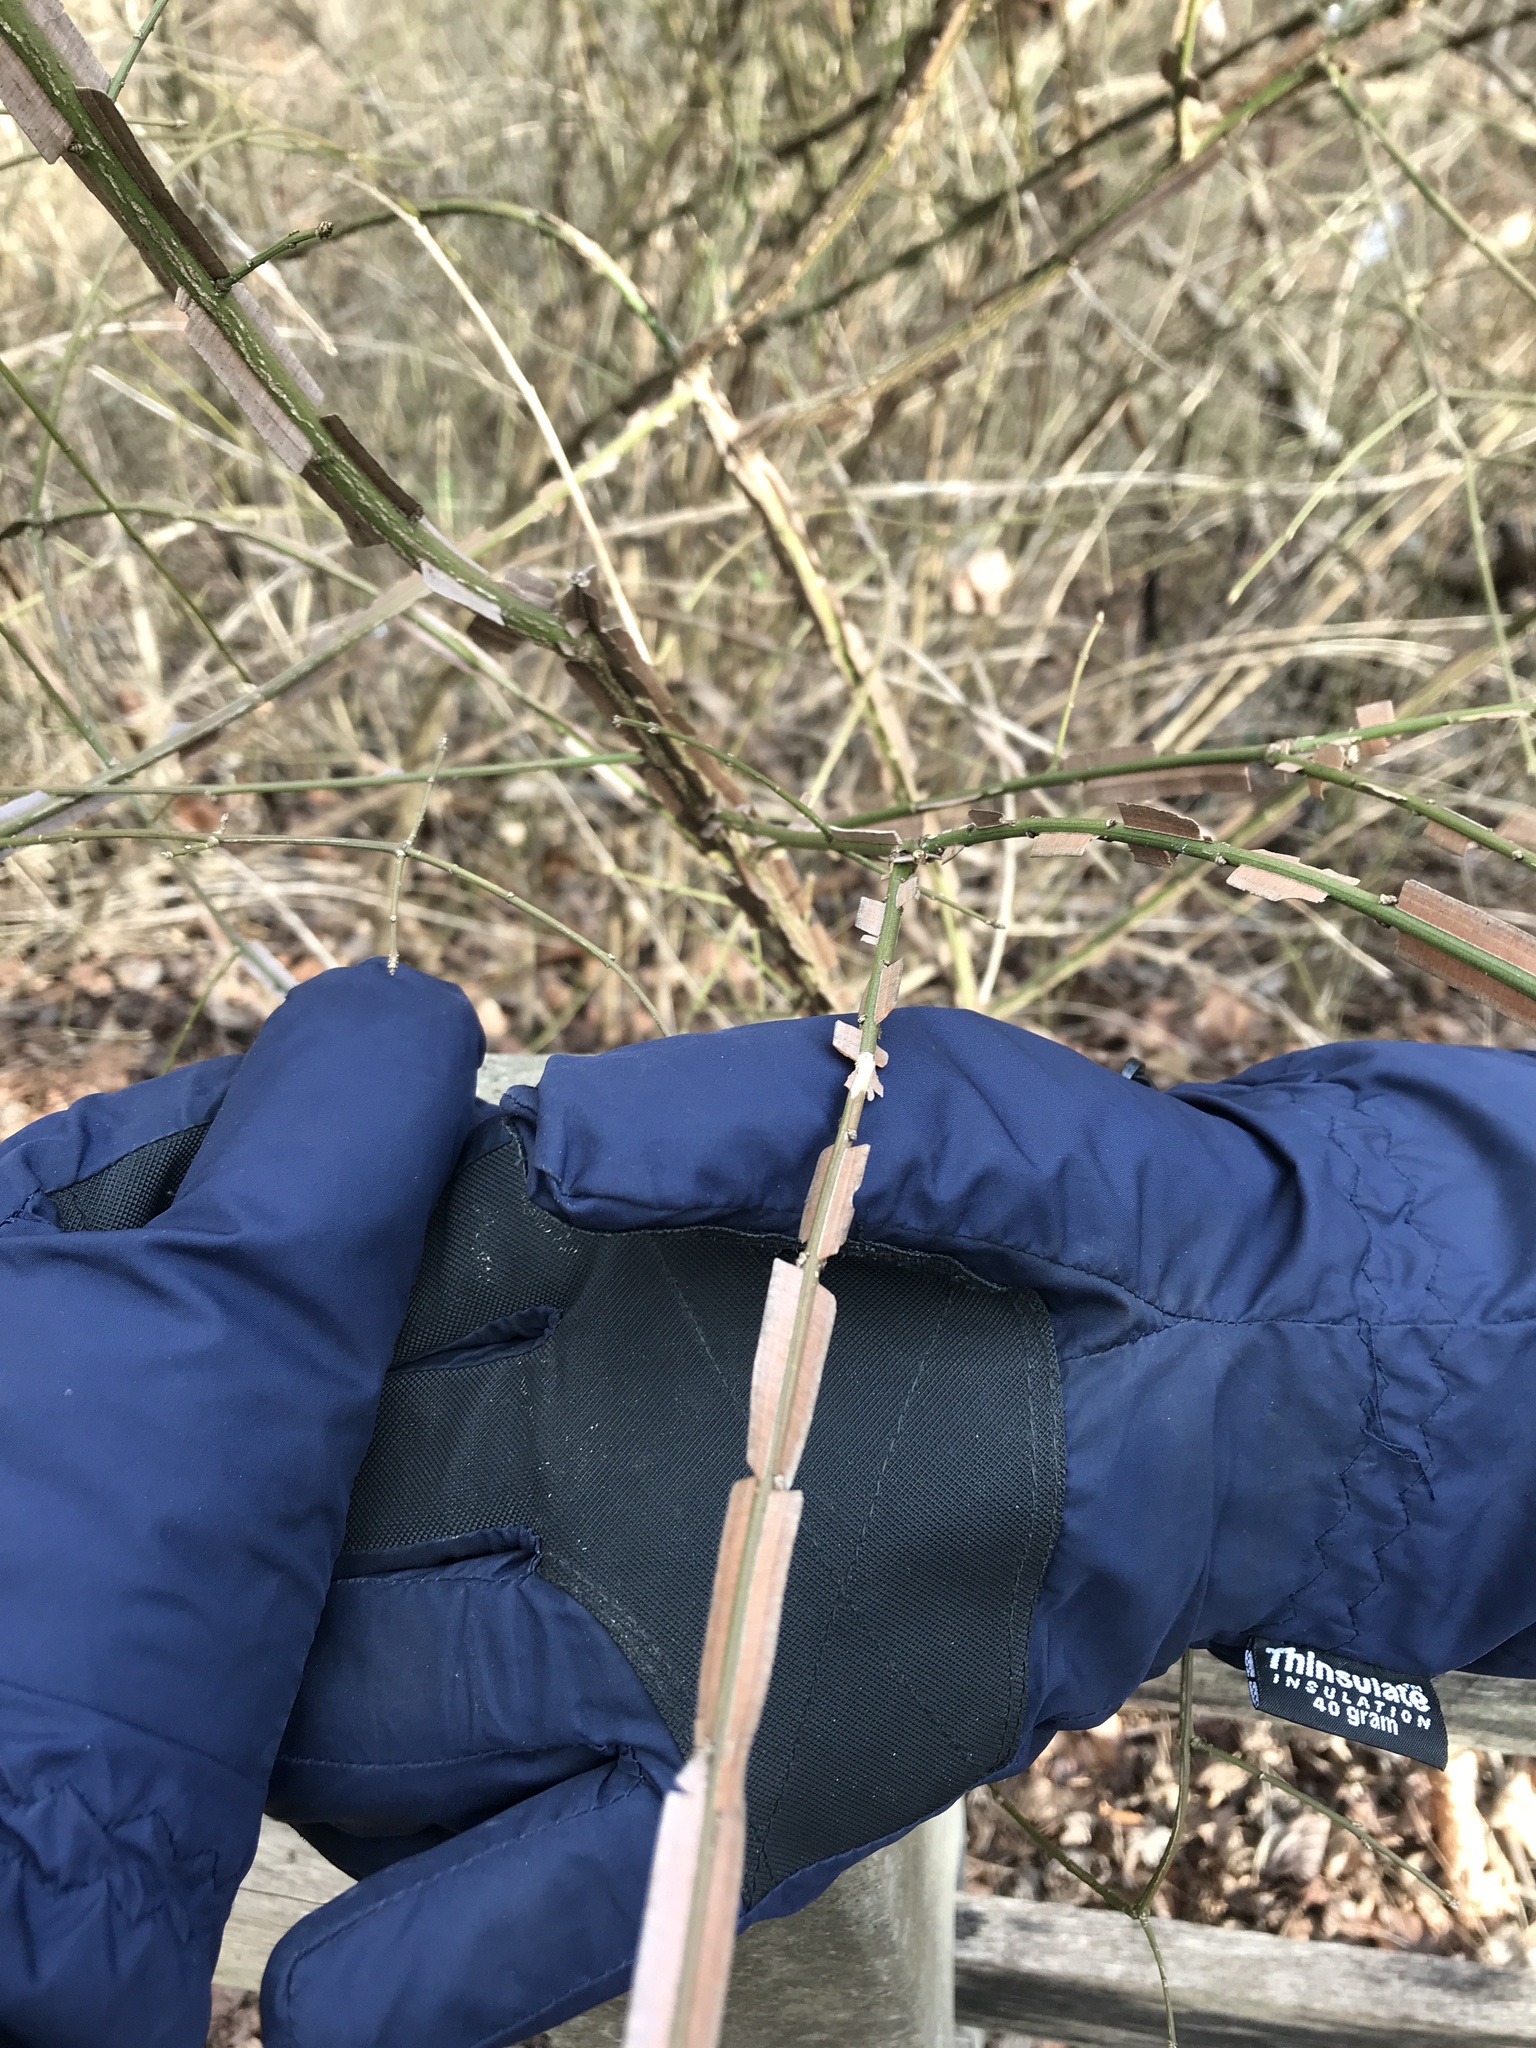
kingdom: Plantae
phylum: Tracheophyta
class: Magnoliopsida
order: Celastrales
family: Celastraceae
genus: Euonymus
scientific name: Euonymus alatus
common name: Winged euonymus
